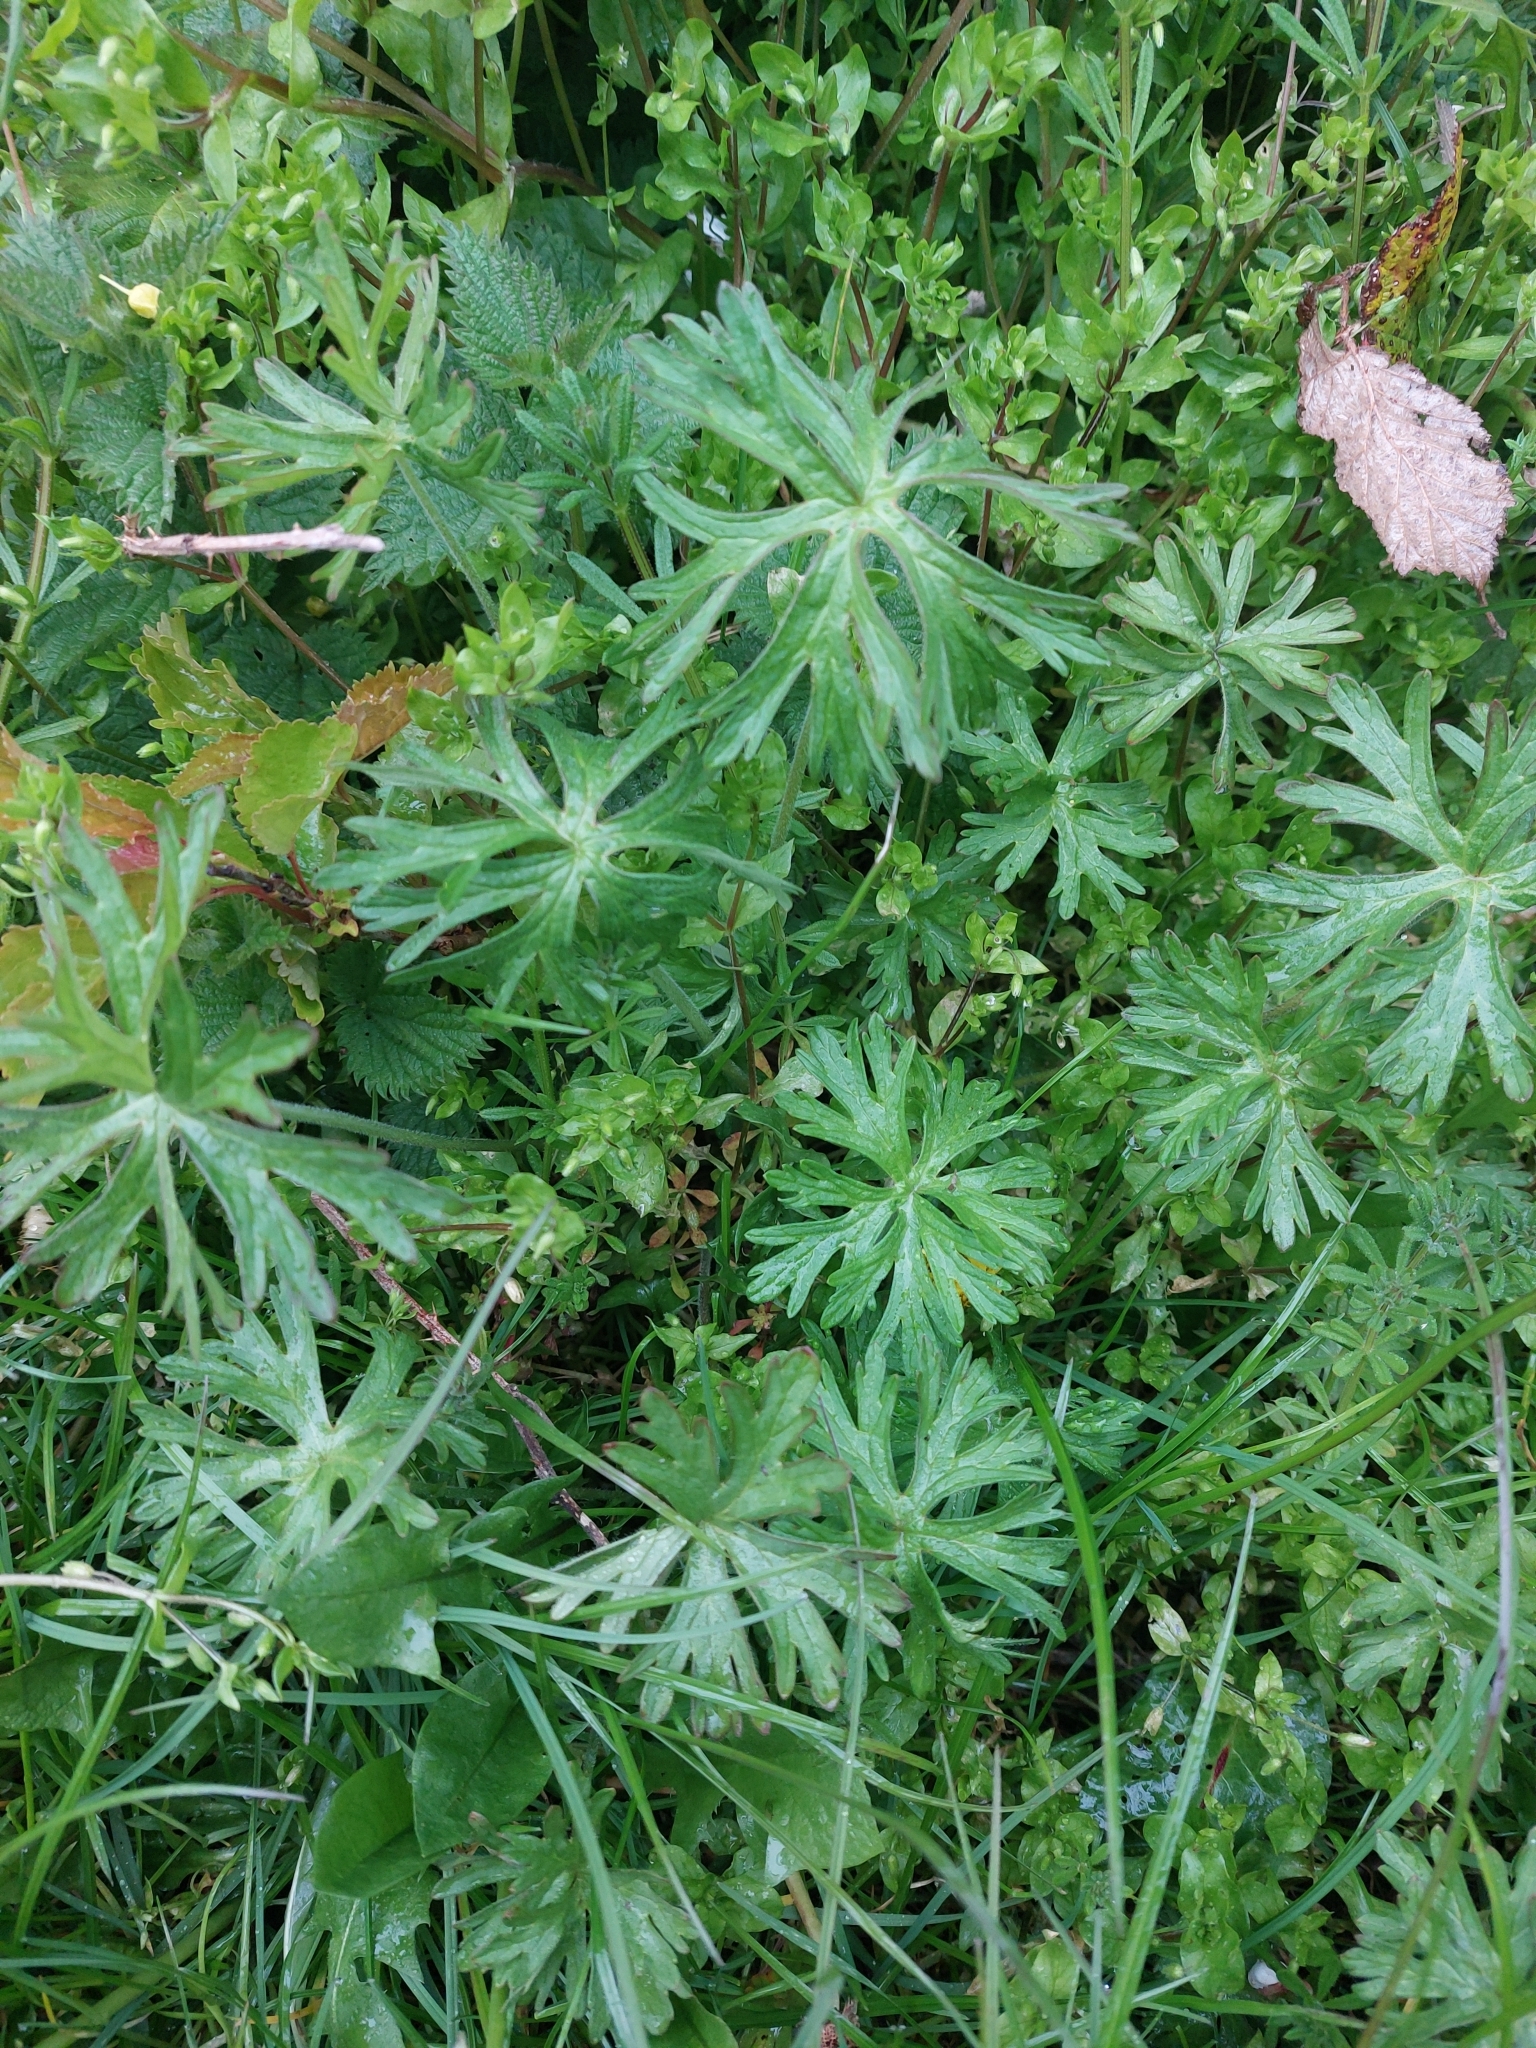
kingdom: Plantae
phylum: Tracheophyta
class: Magnoliopsida
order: Geraniales
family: Geraniaceae
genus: Geranium
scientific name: Geranium dissectum
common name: Cut-leaved crane's-bill
